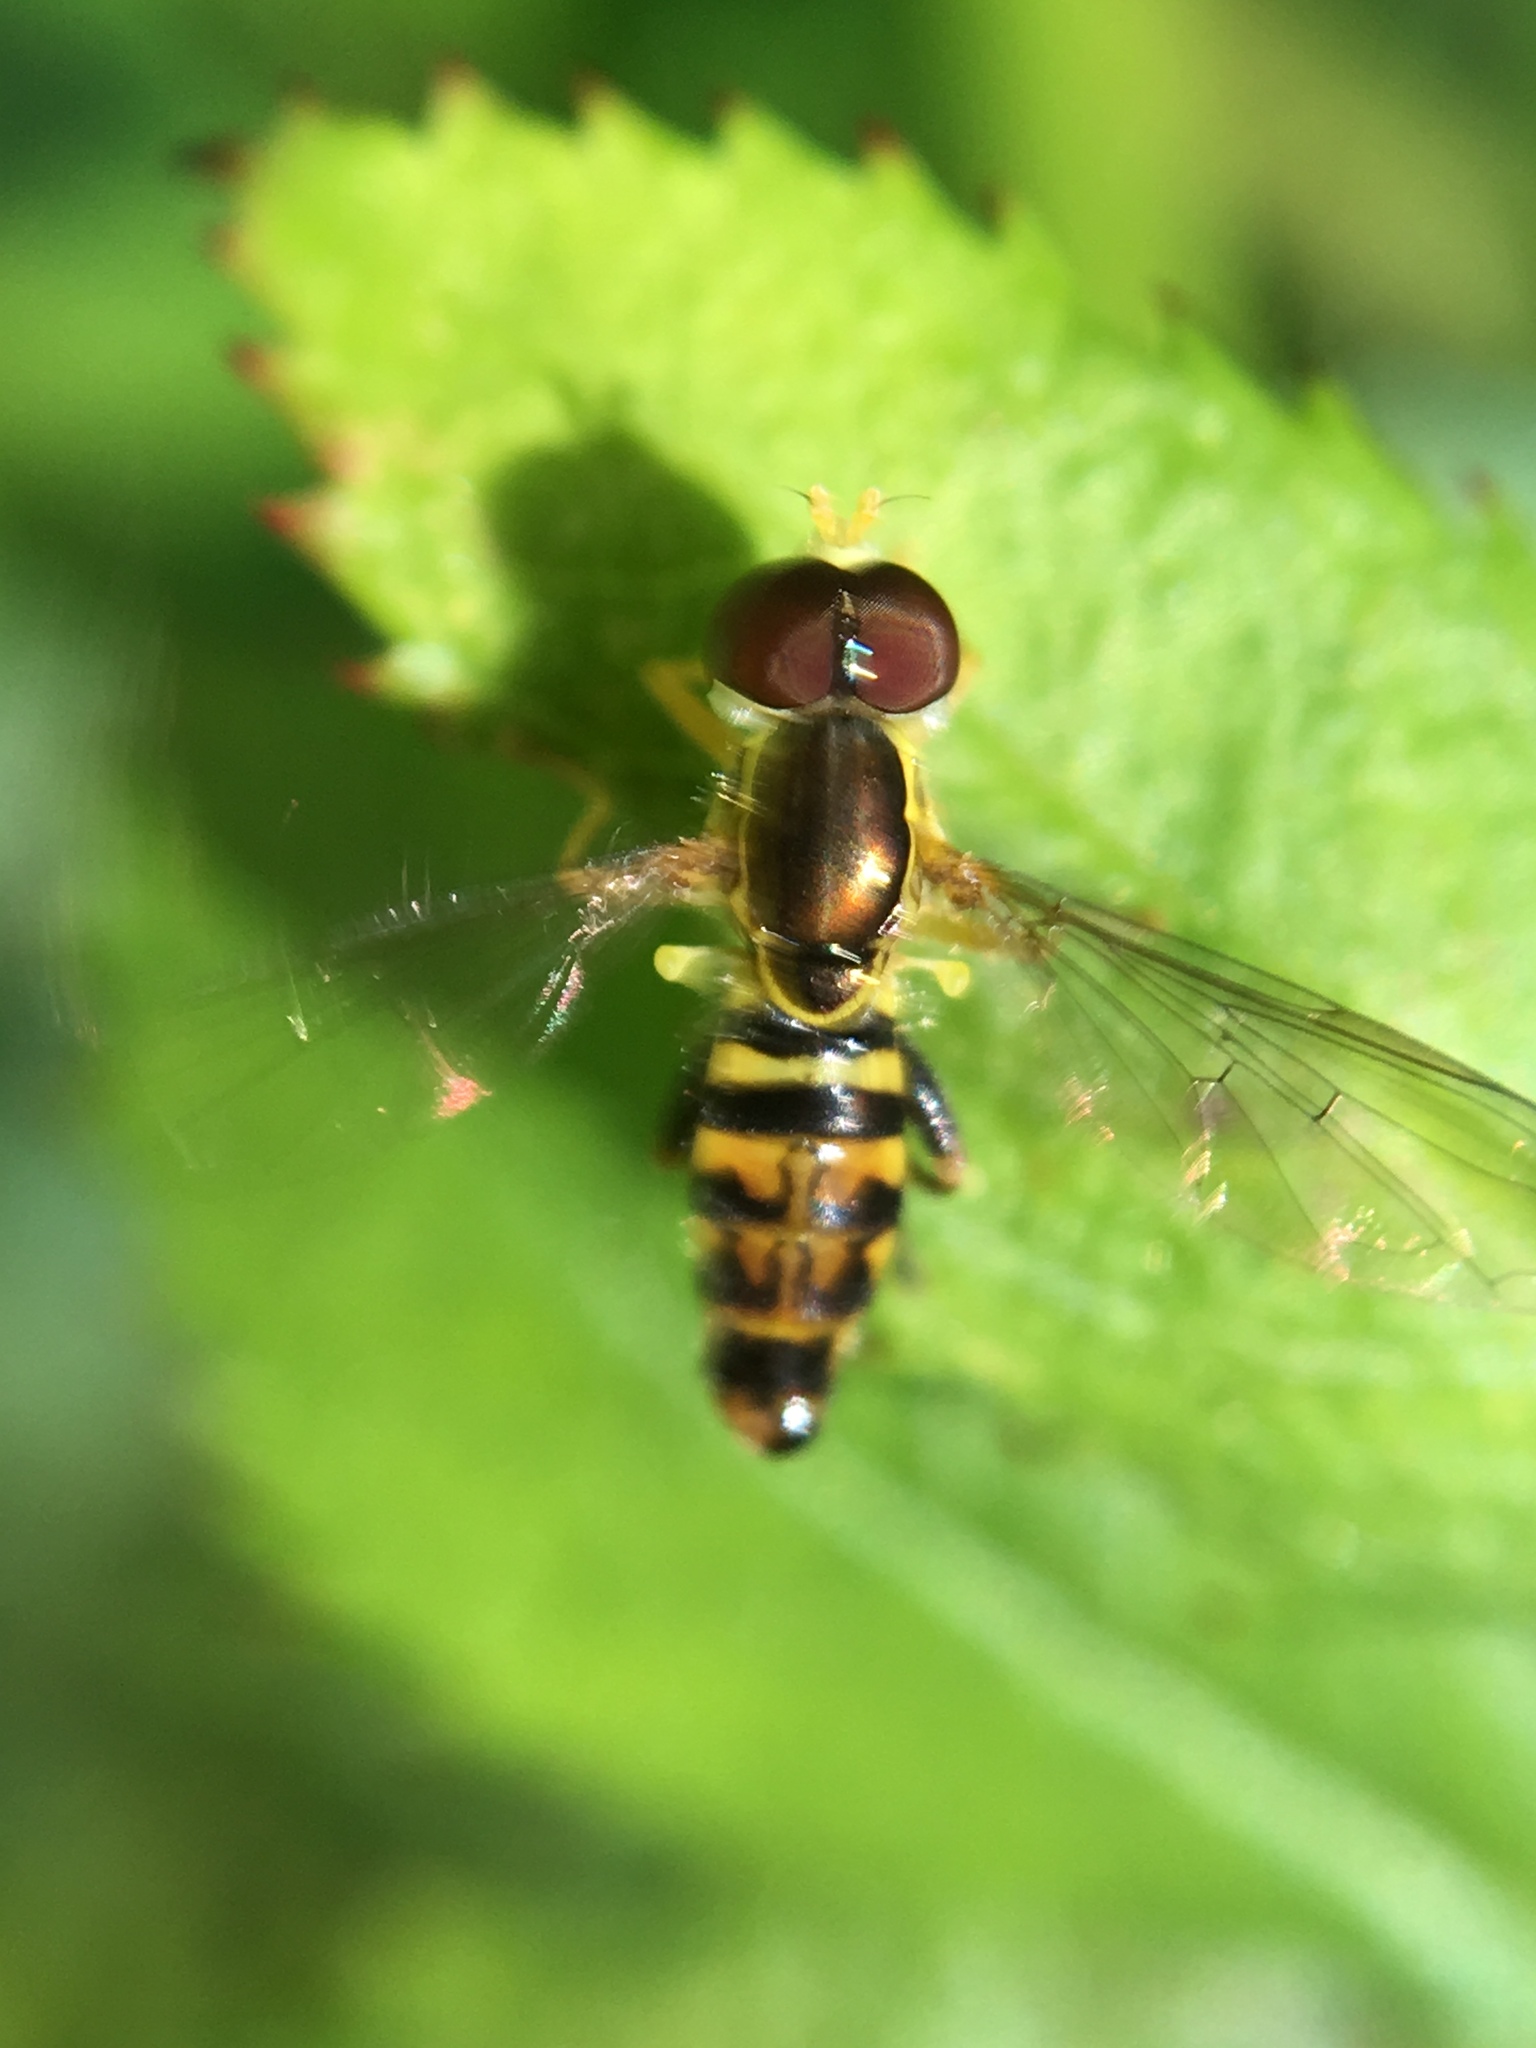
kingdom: Animalia
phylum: Arthropoda
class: Insecta
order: Diptera
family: Syrphidae
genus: Toxomerus
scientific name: Toxomerus geminatus
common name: Eastern calligrapher
